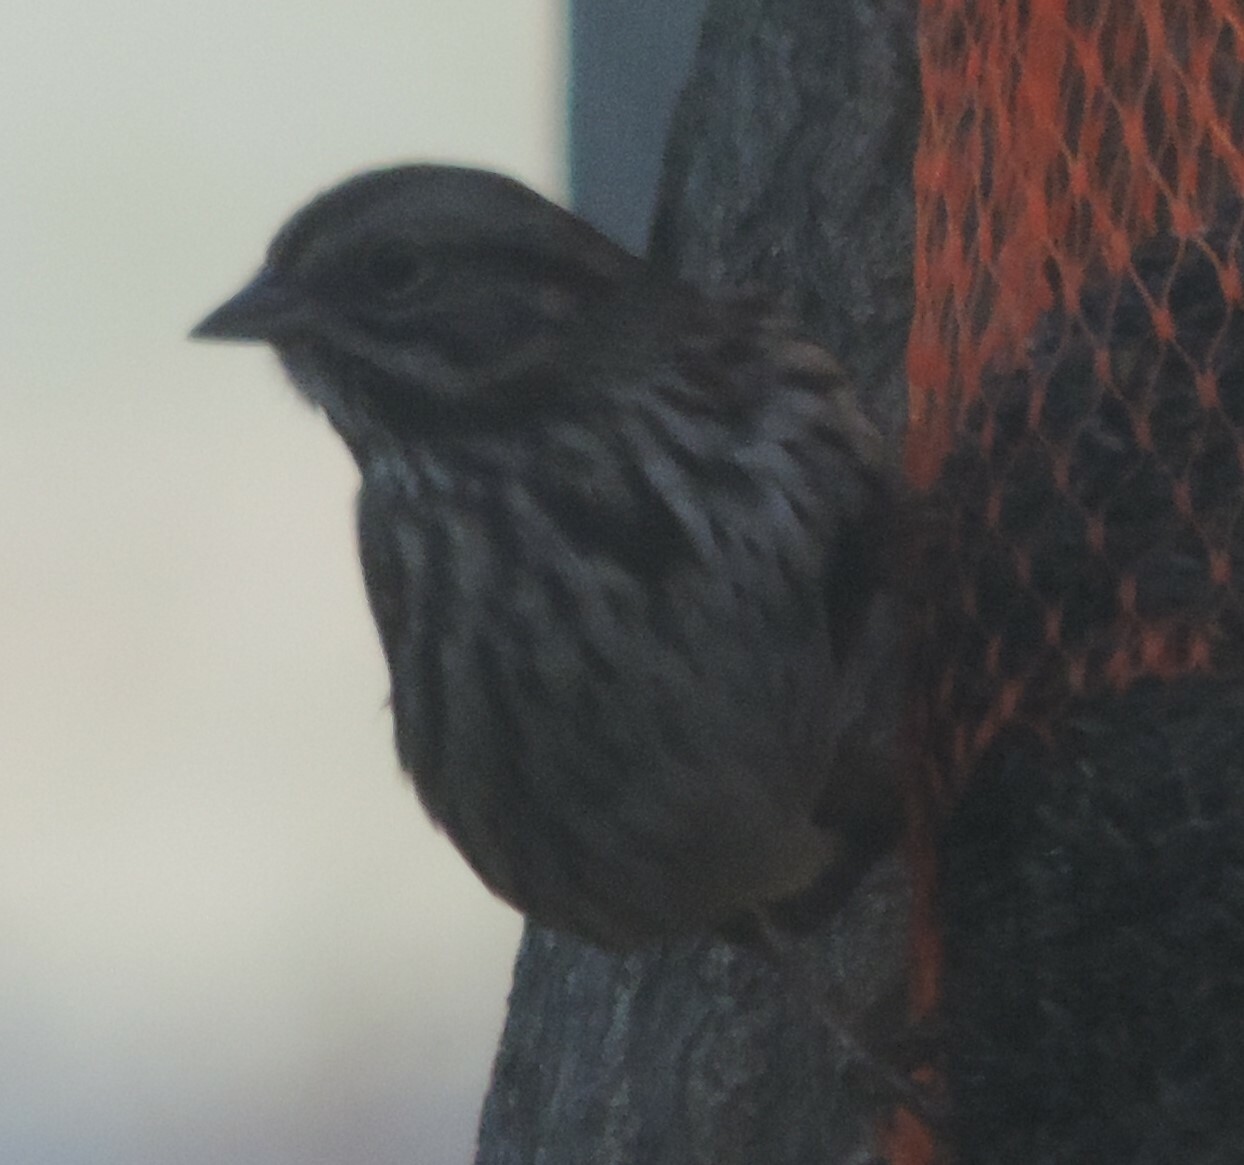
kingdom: Animalia
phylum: Chordata
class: Aves
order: Passeriformes
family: Passerellidae
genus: Melospiza
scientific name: Melospiza melodia
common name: Song sparrow
